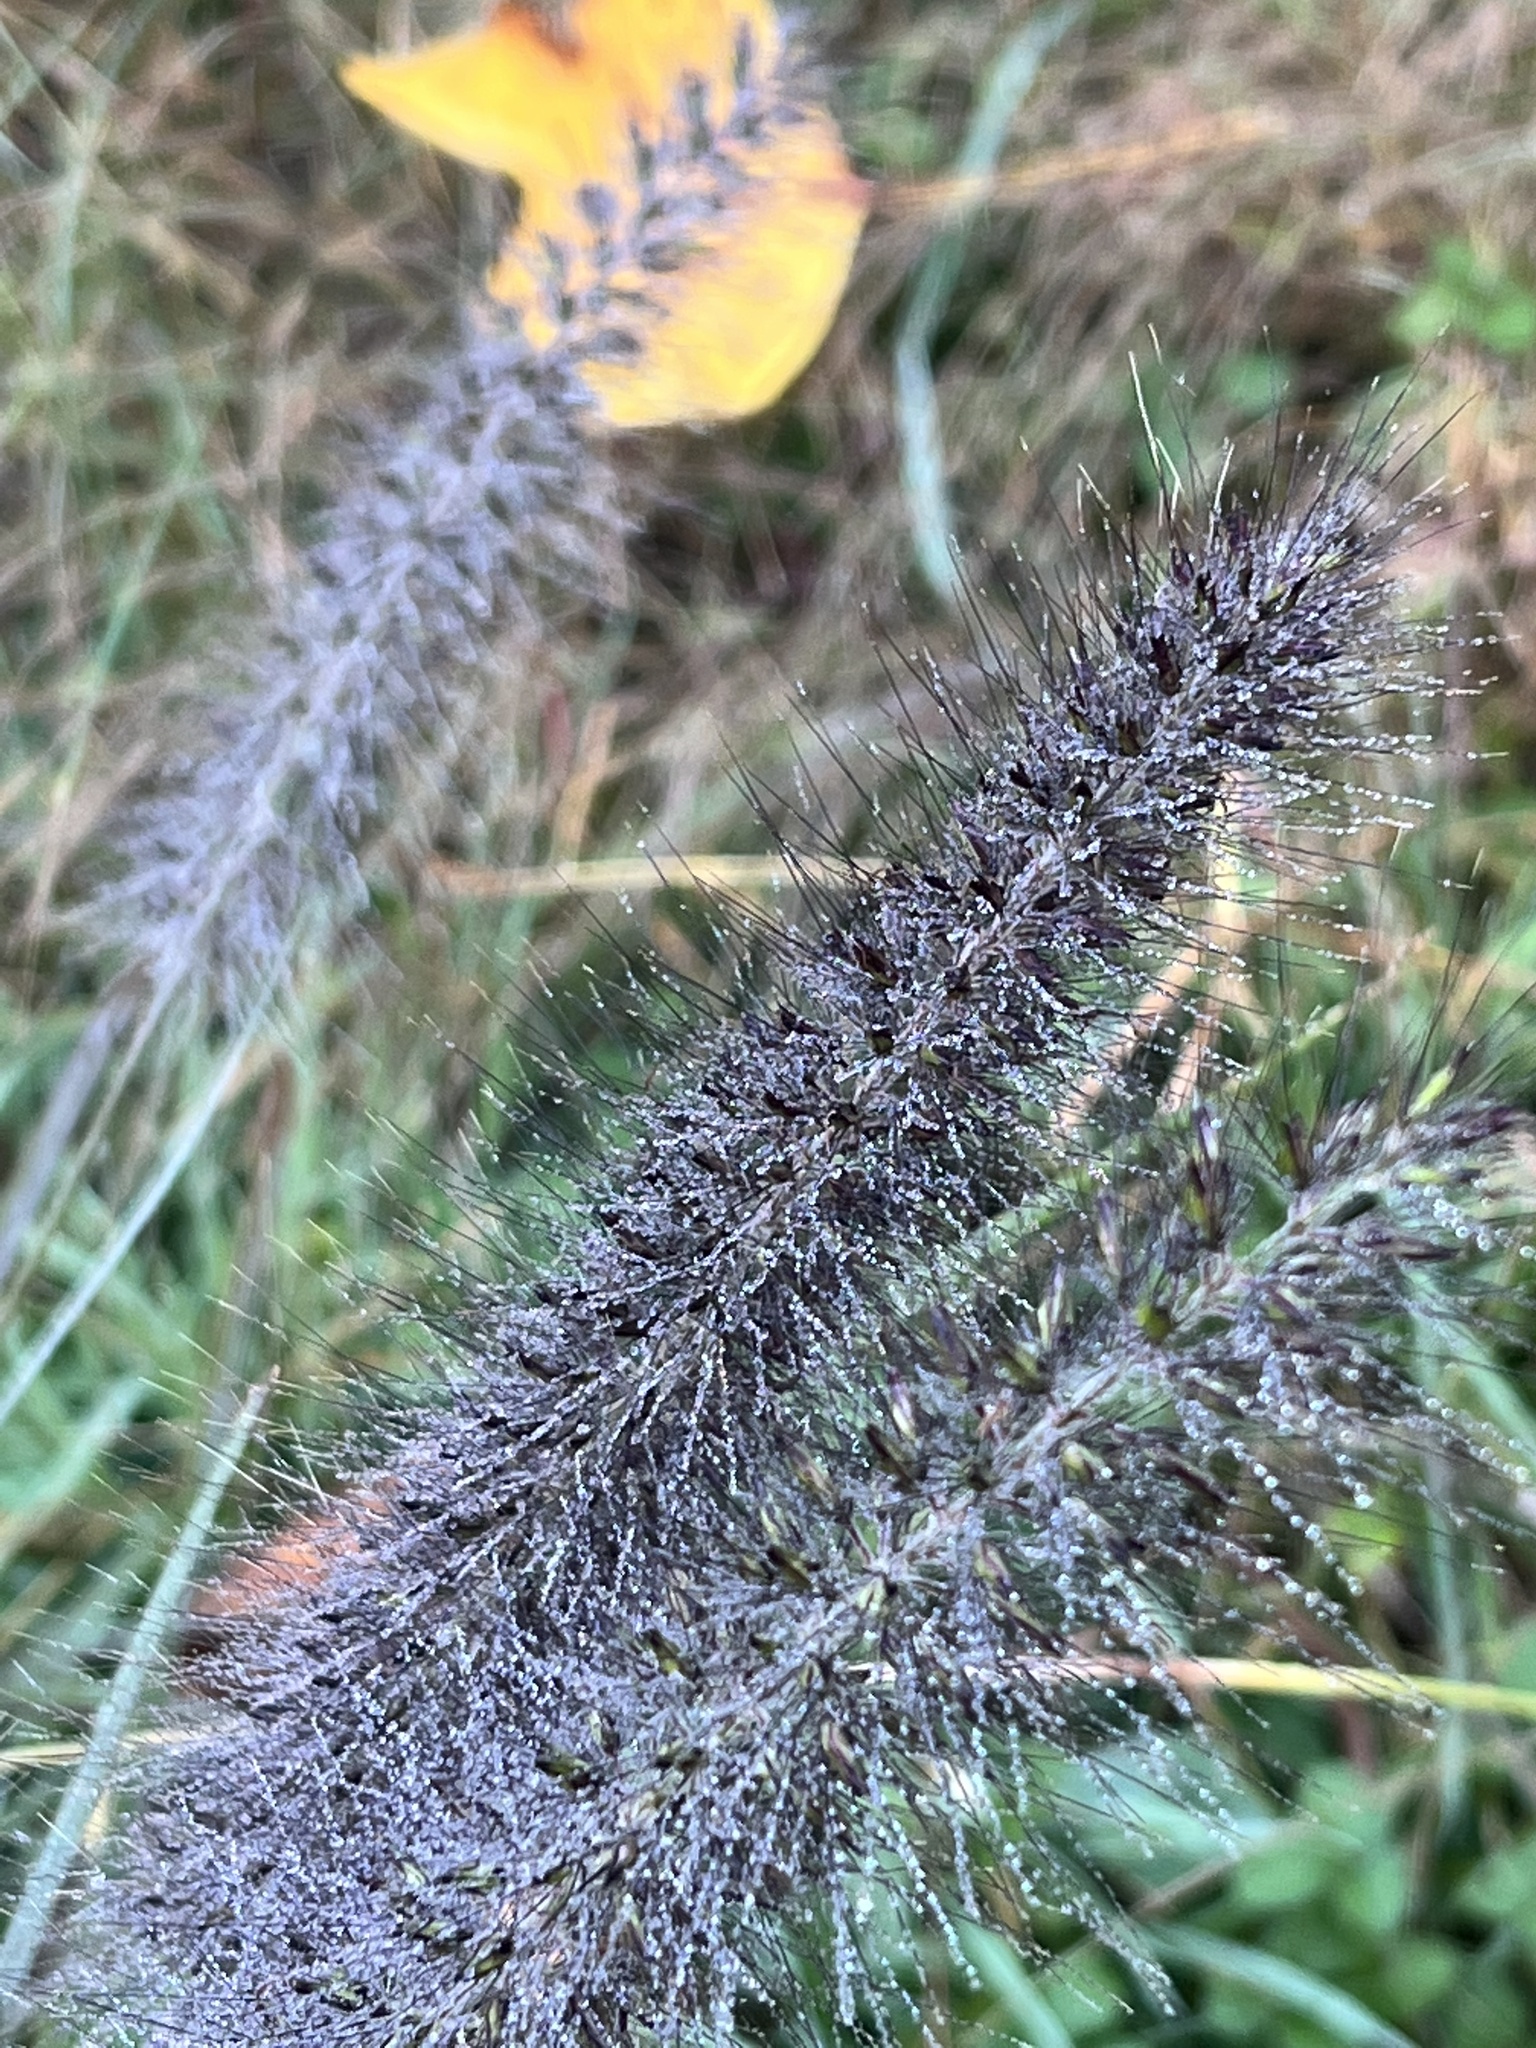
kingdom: Plantae
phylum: Tracheophyta
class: Liliopsida
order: Poales
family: Poaceae
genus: Cenchrus
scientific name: Cenchrus alopecuroides
